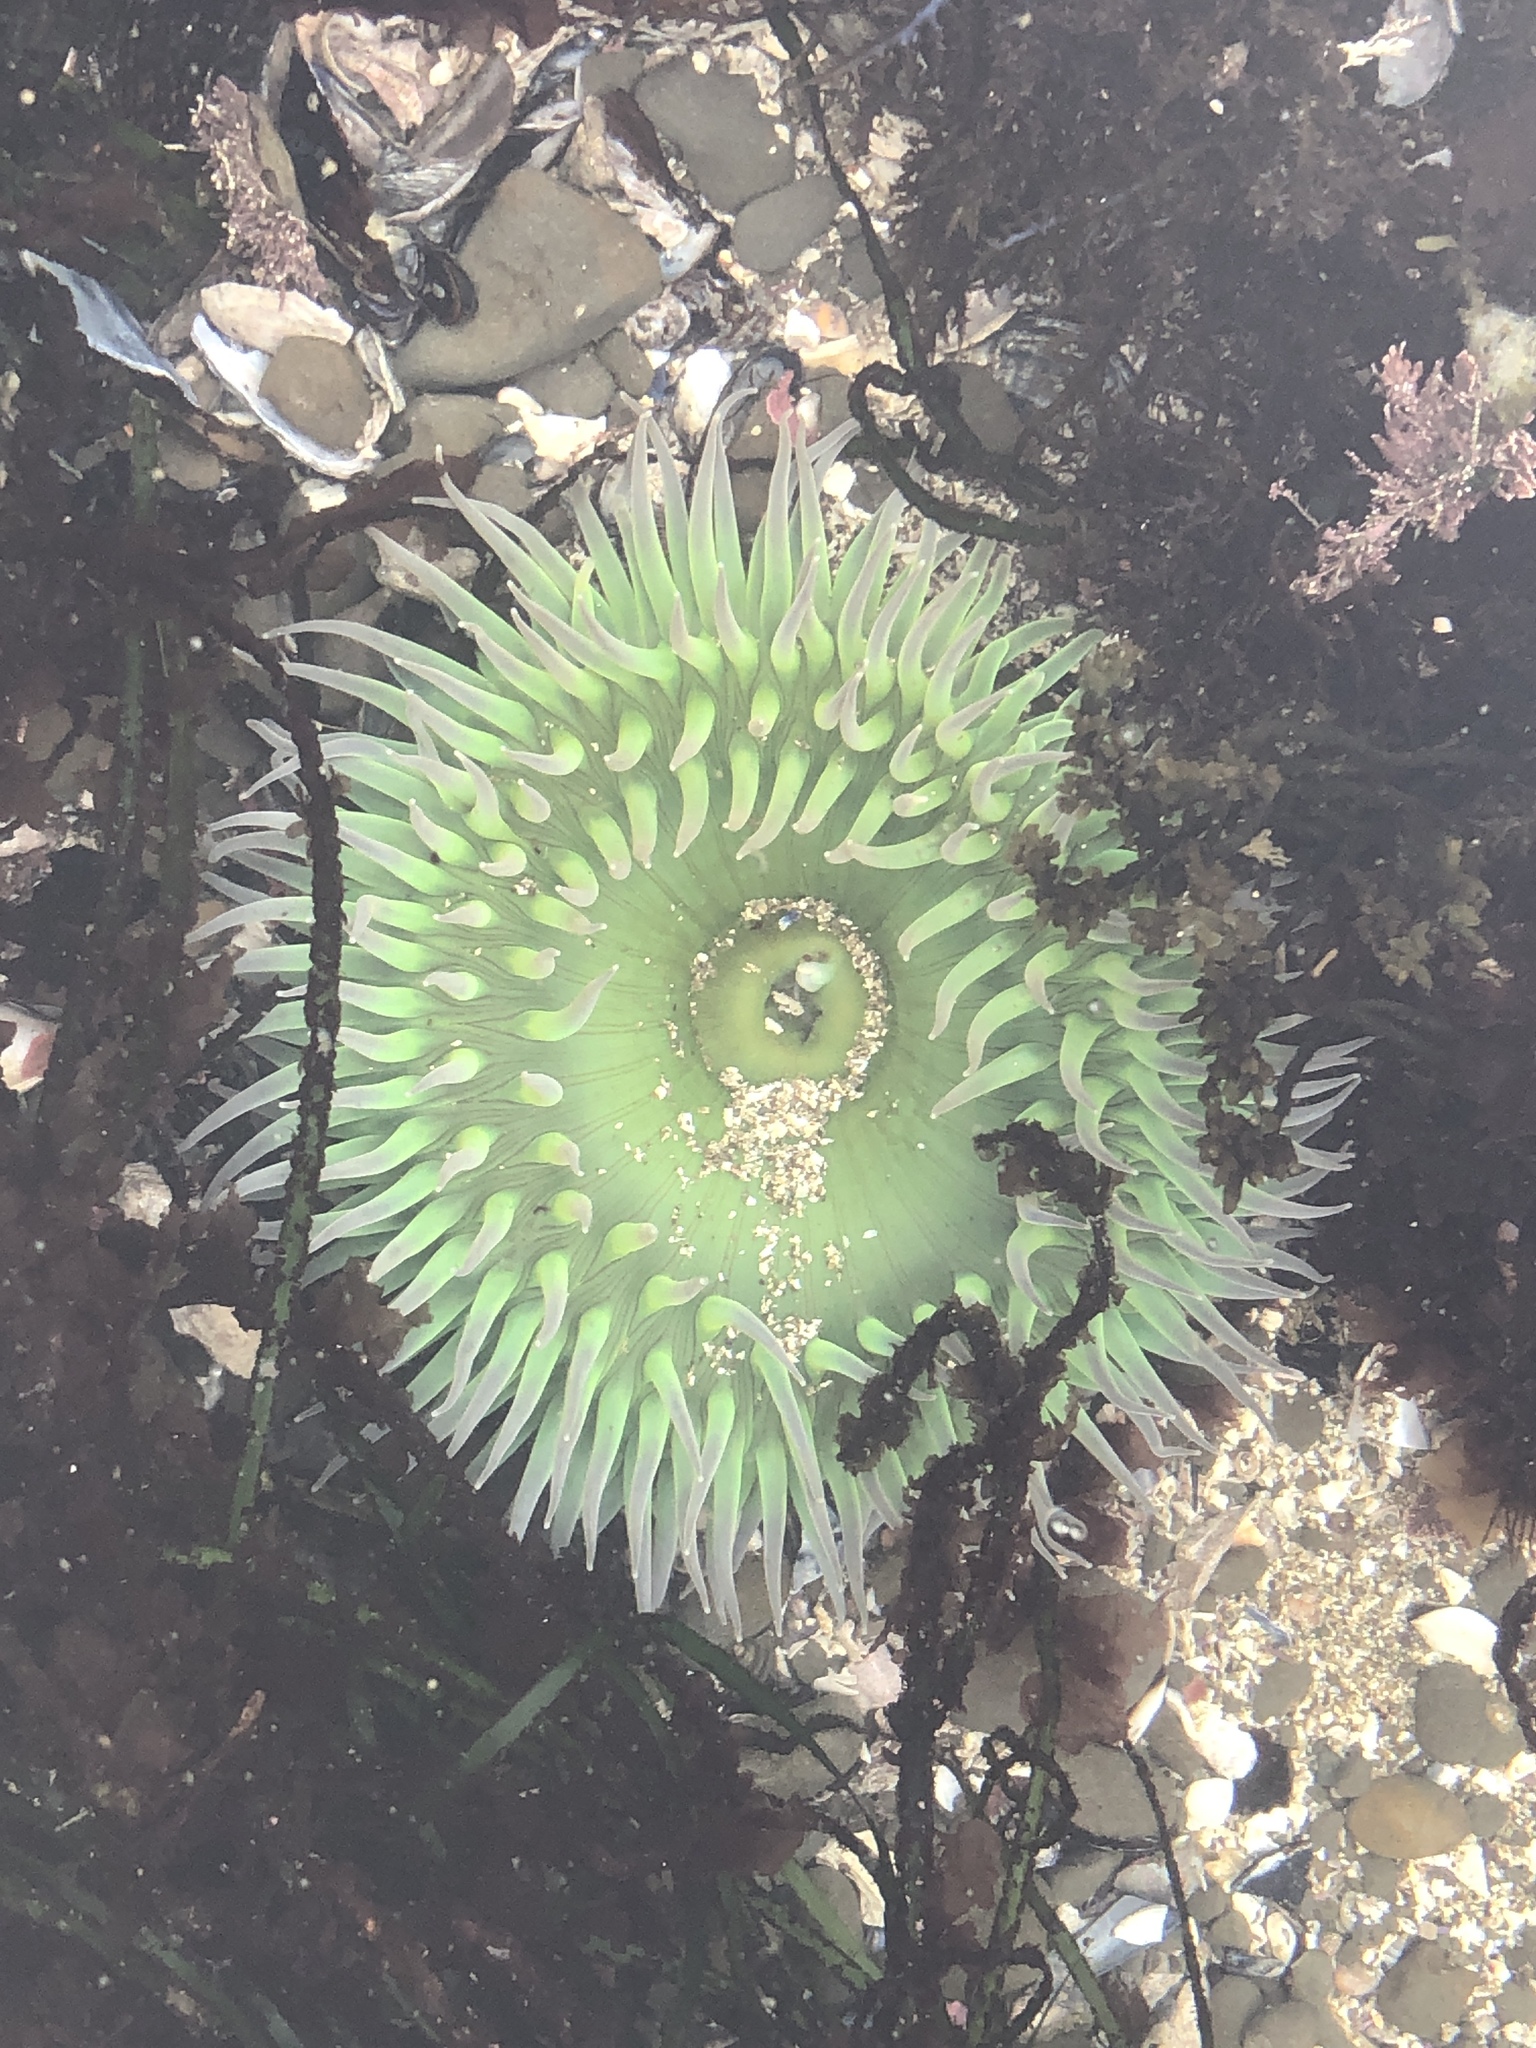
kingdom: Animalia
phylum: Cnidaria
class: Anthozoa
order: Actiniaria
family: Actiniidae
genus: Anthopleura
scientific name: Anthopleura xanthogrammica
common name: Giant green anemone
